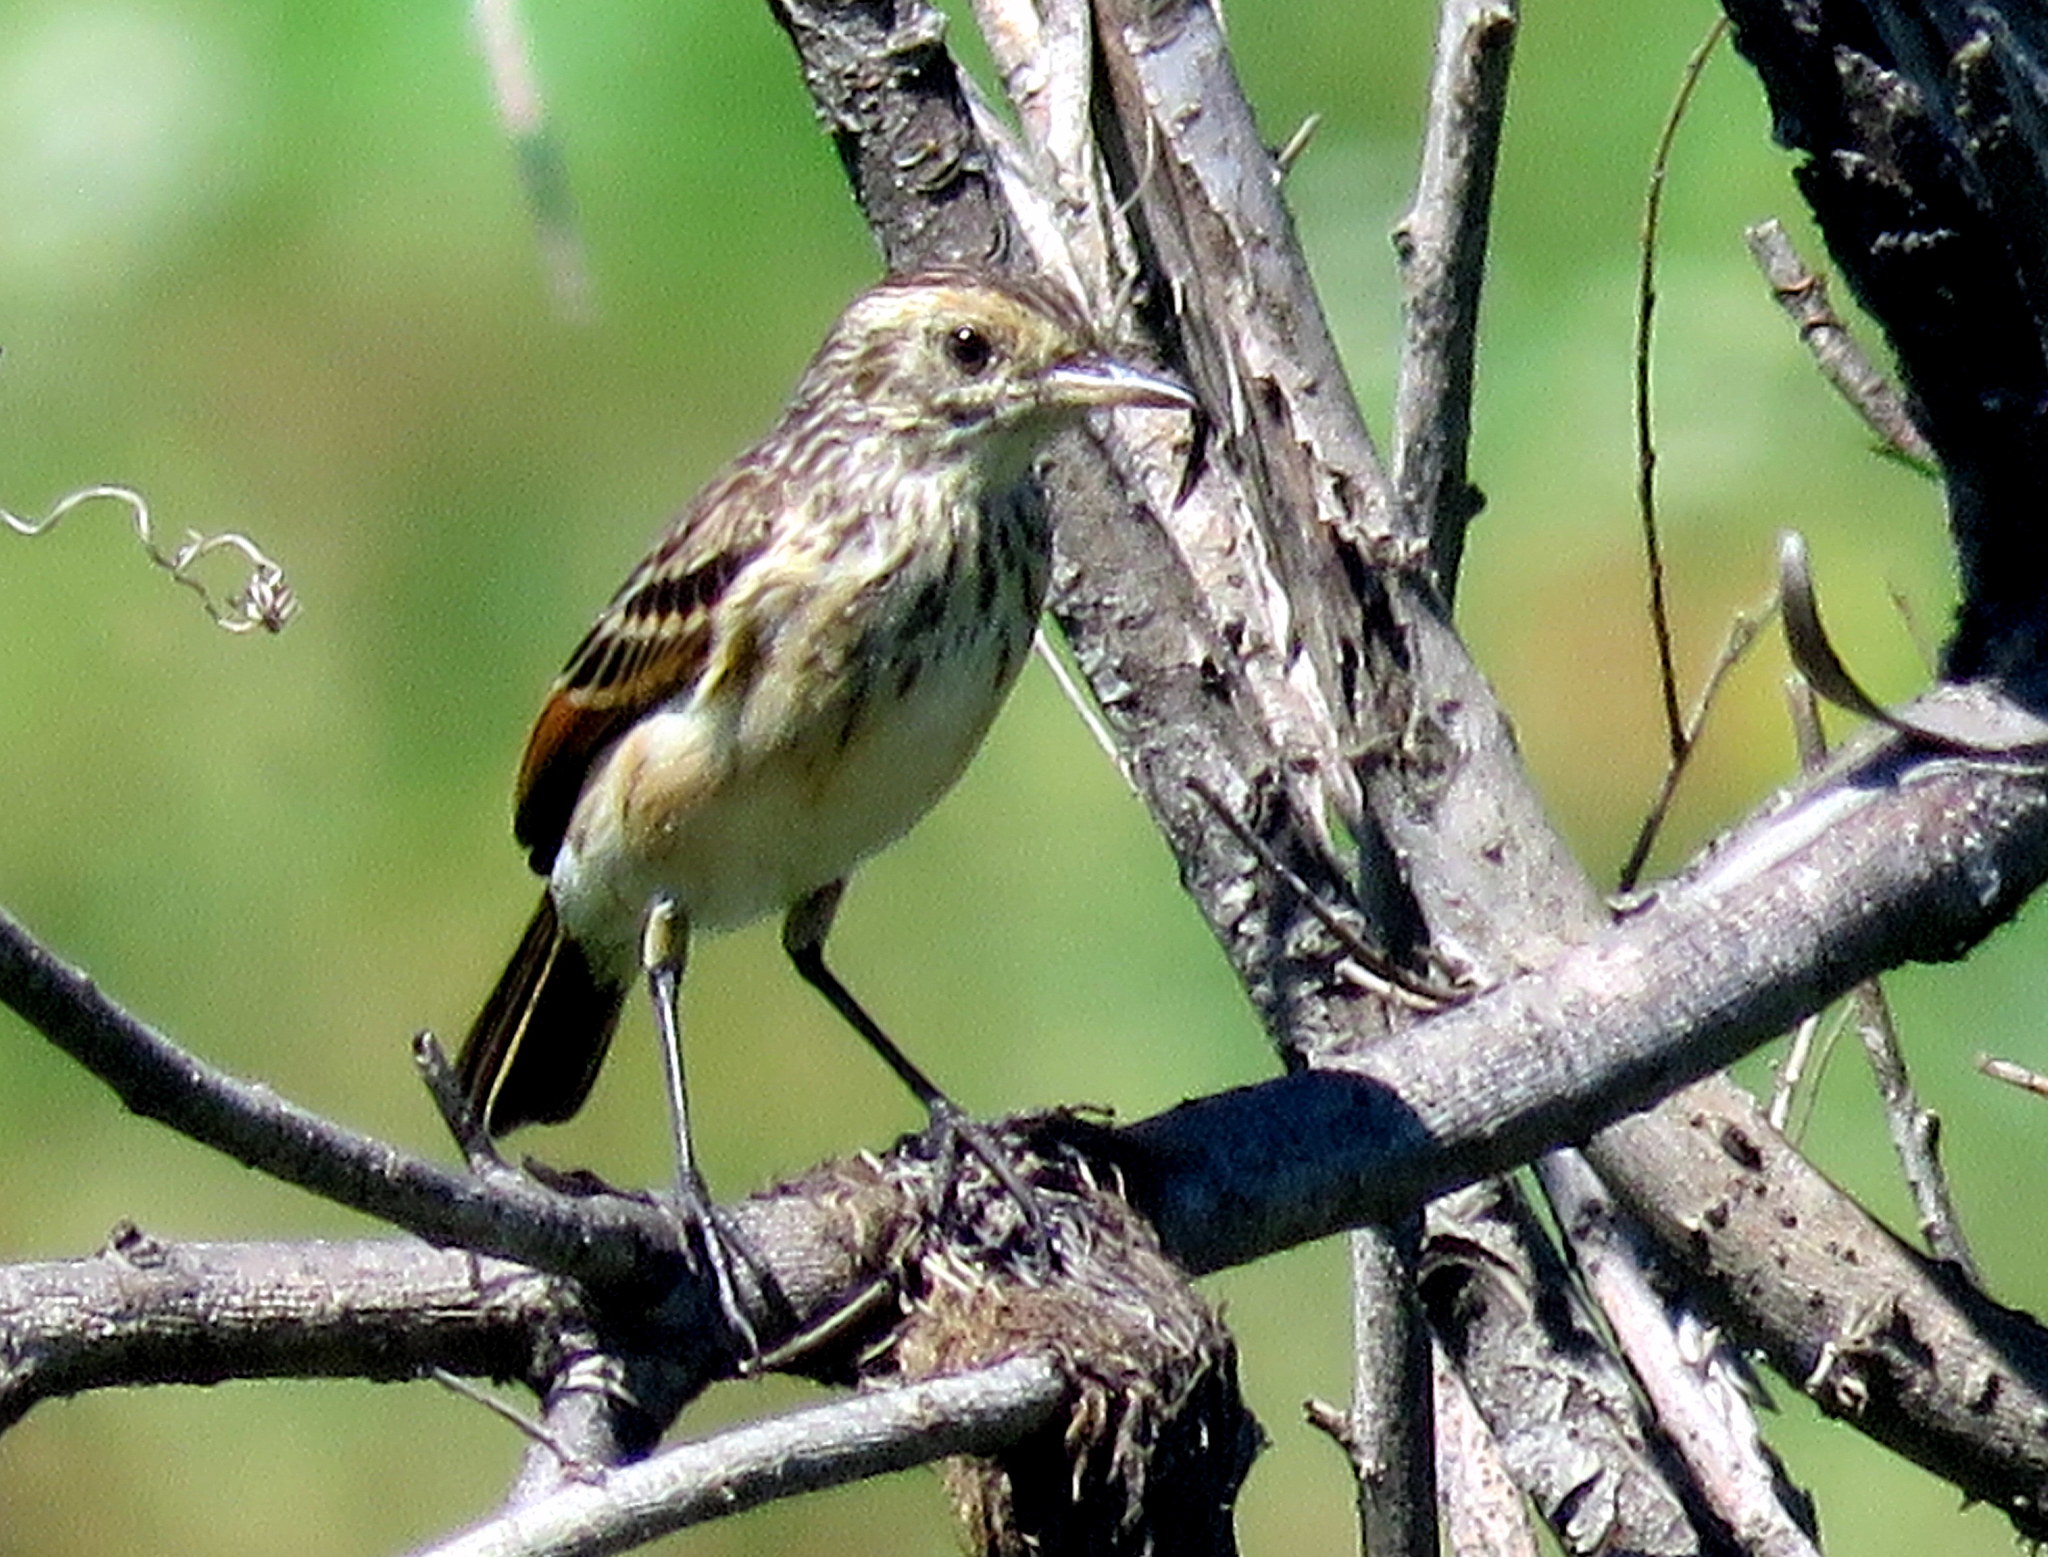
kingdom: Animalia
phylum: Chordata
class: Aves
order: Passeriformes
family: Tyrannidae
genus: Hymenops
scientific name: Hymenops perspicillatus
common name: Spectacled tyrant
